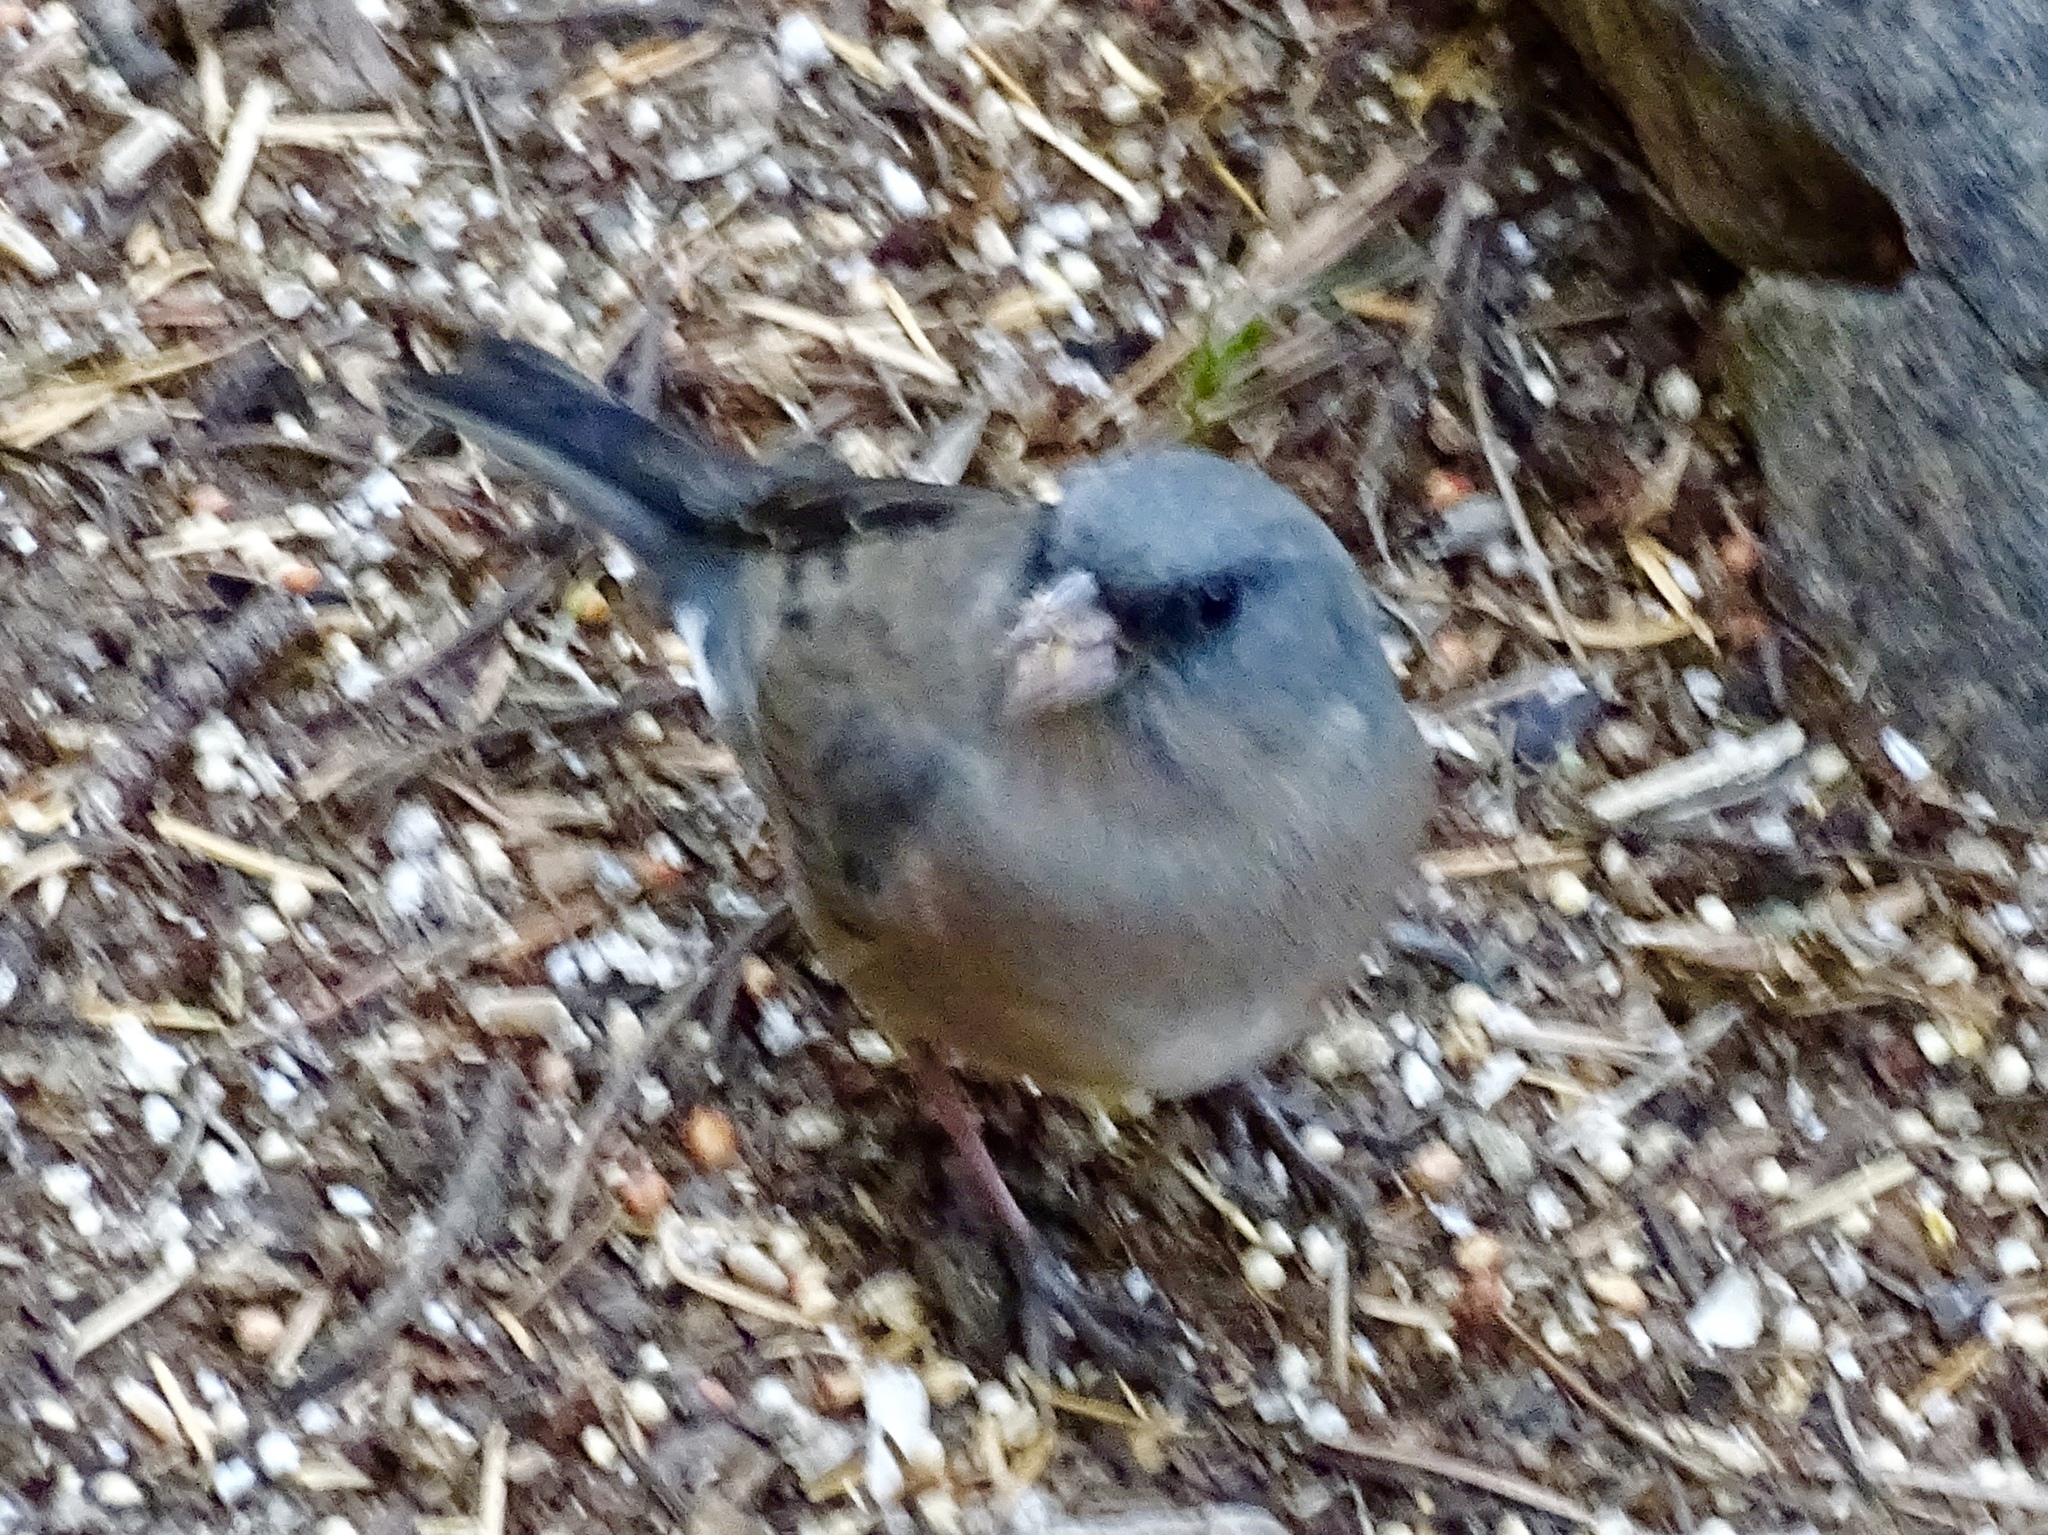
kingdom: Animalia
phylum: Chordata
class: Aves
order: Passeriformes
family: Passerellidae
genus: Junco
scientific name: Junco hyemalis
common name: Dark-eyed junco
